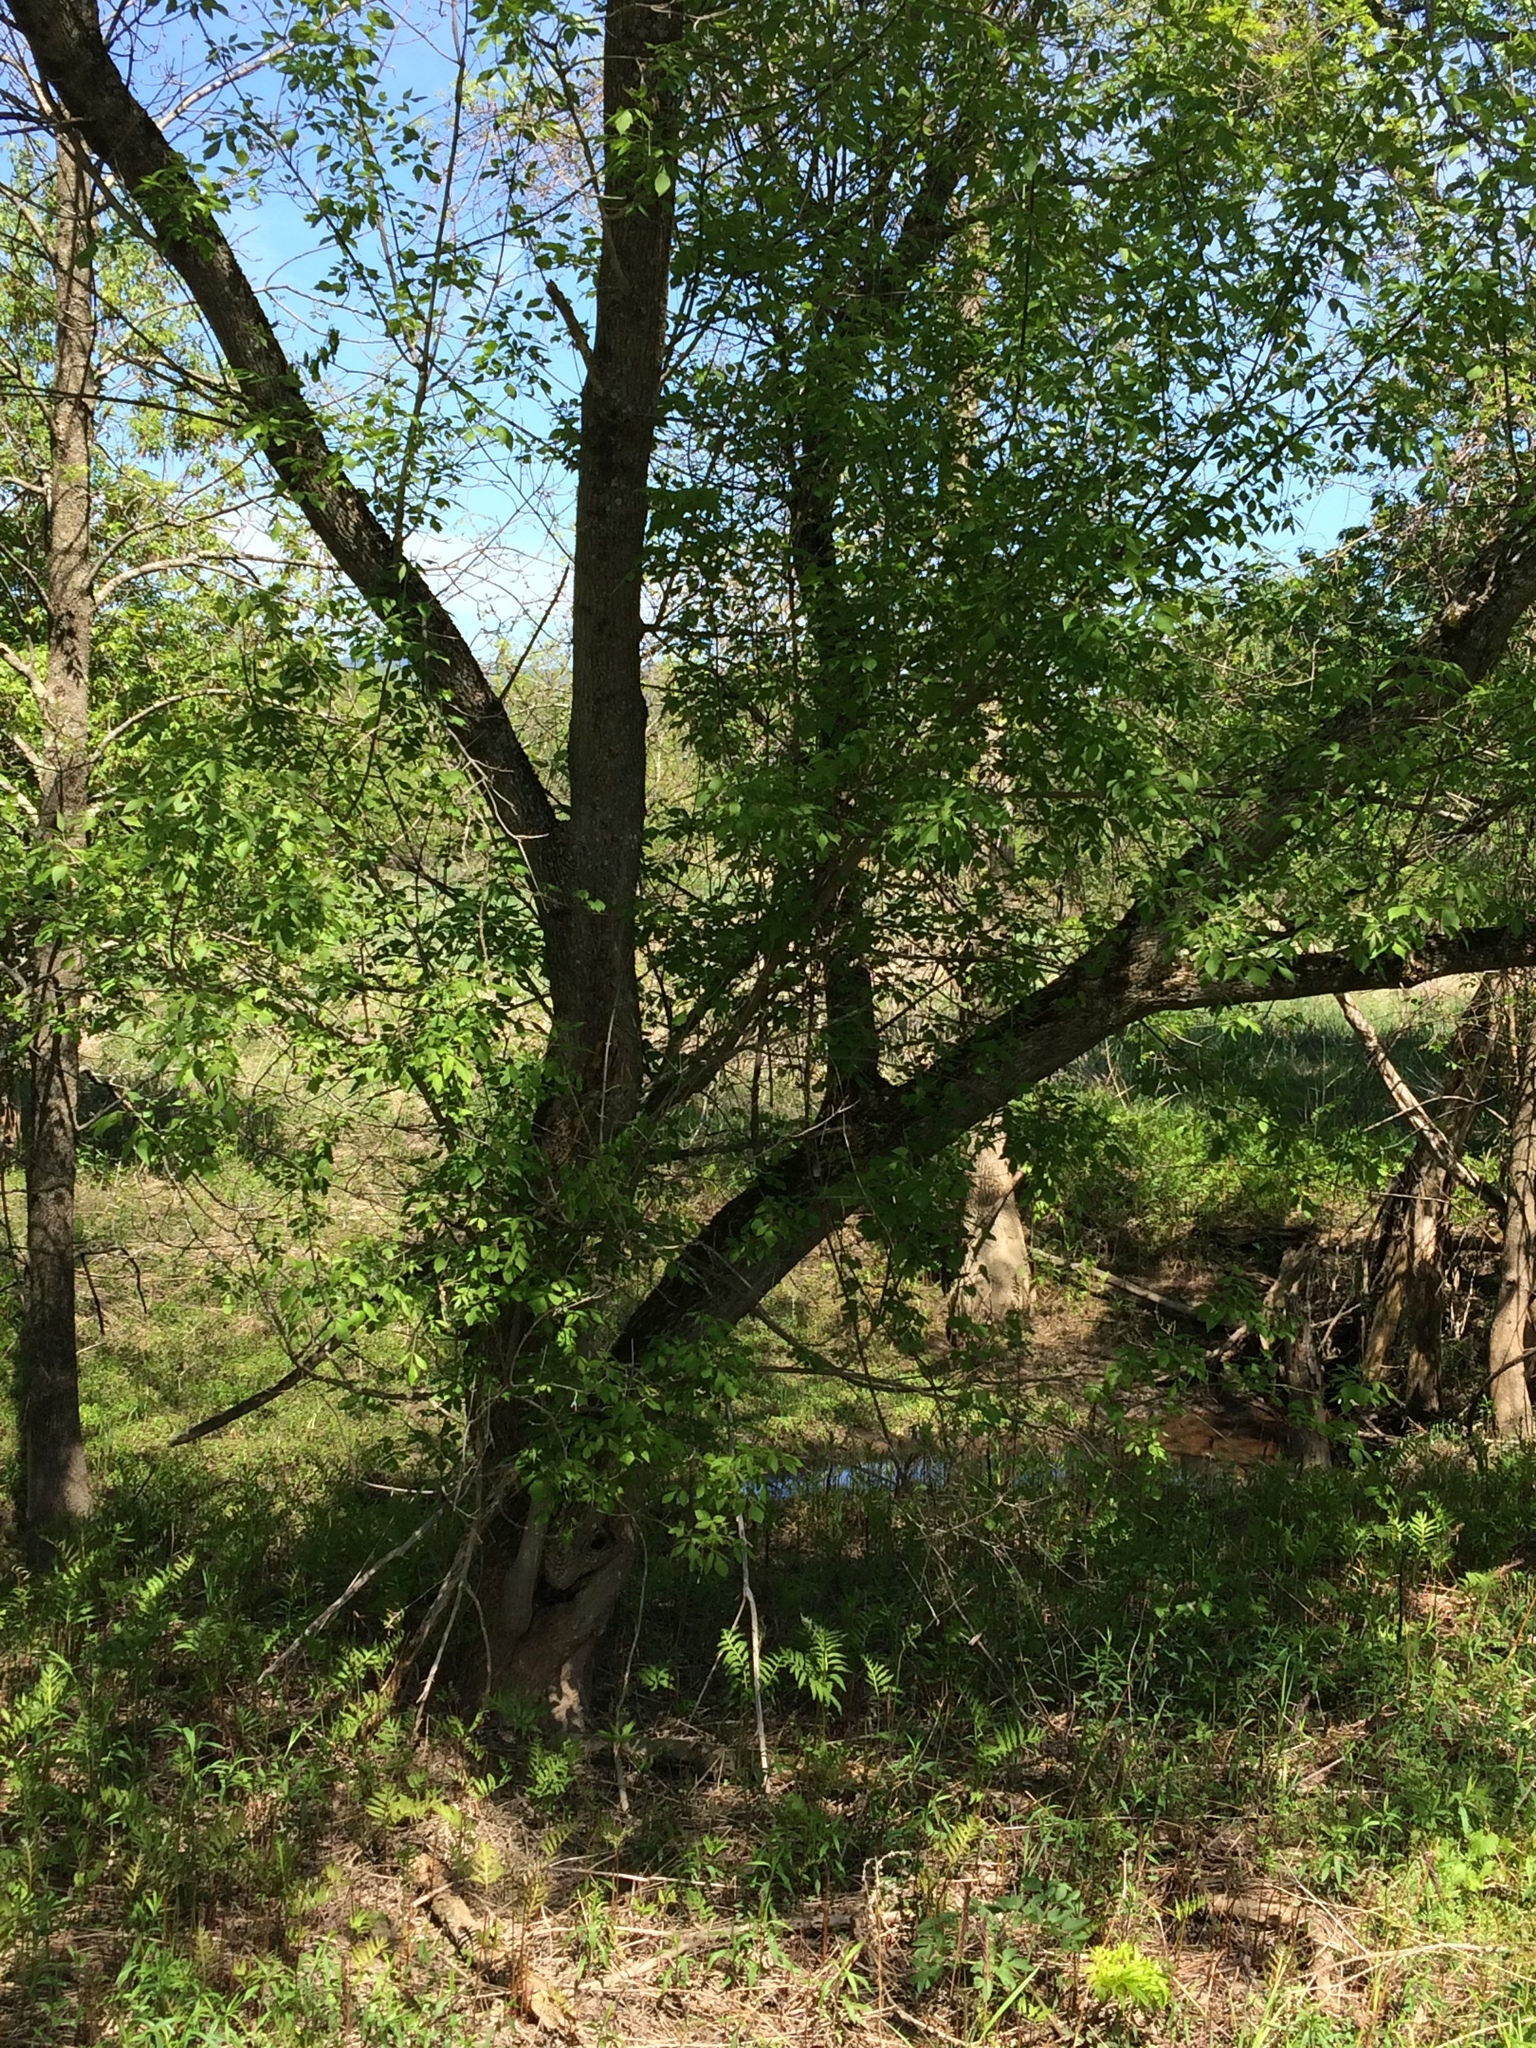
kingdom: Plantae
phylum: Tracheophyta
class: Magnoliopsida
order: Sapindales
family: Sapindaceae
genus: Acer
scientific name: Acer negundo
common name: Ashleaf maple
